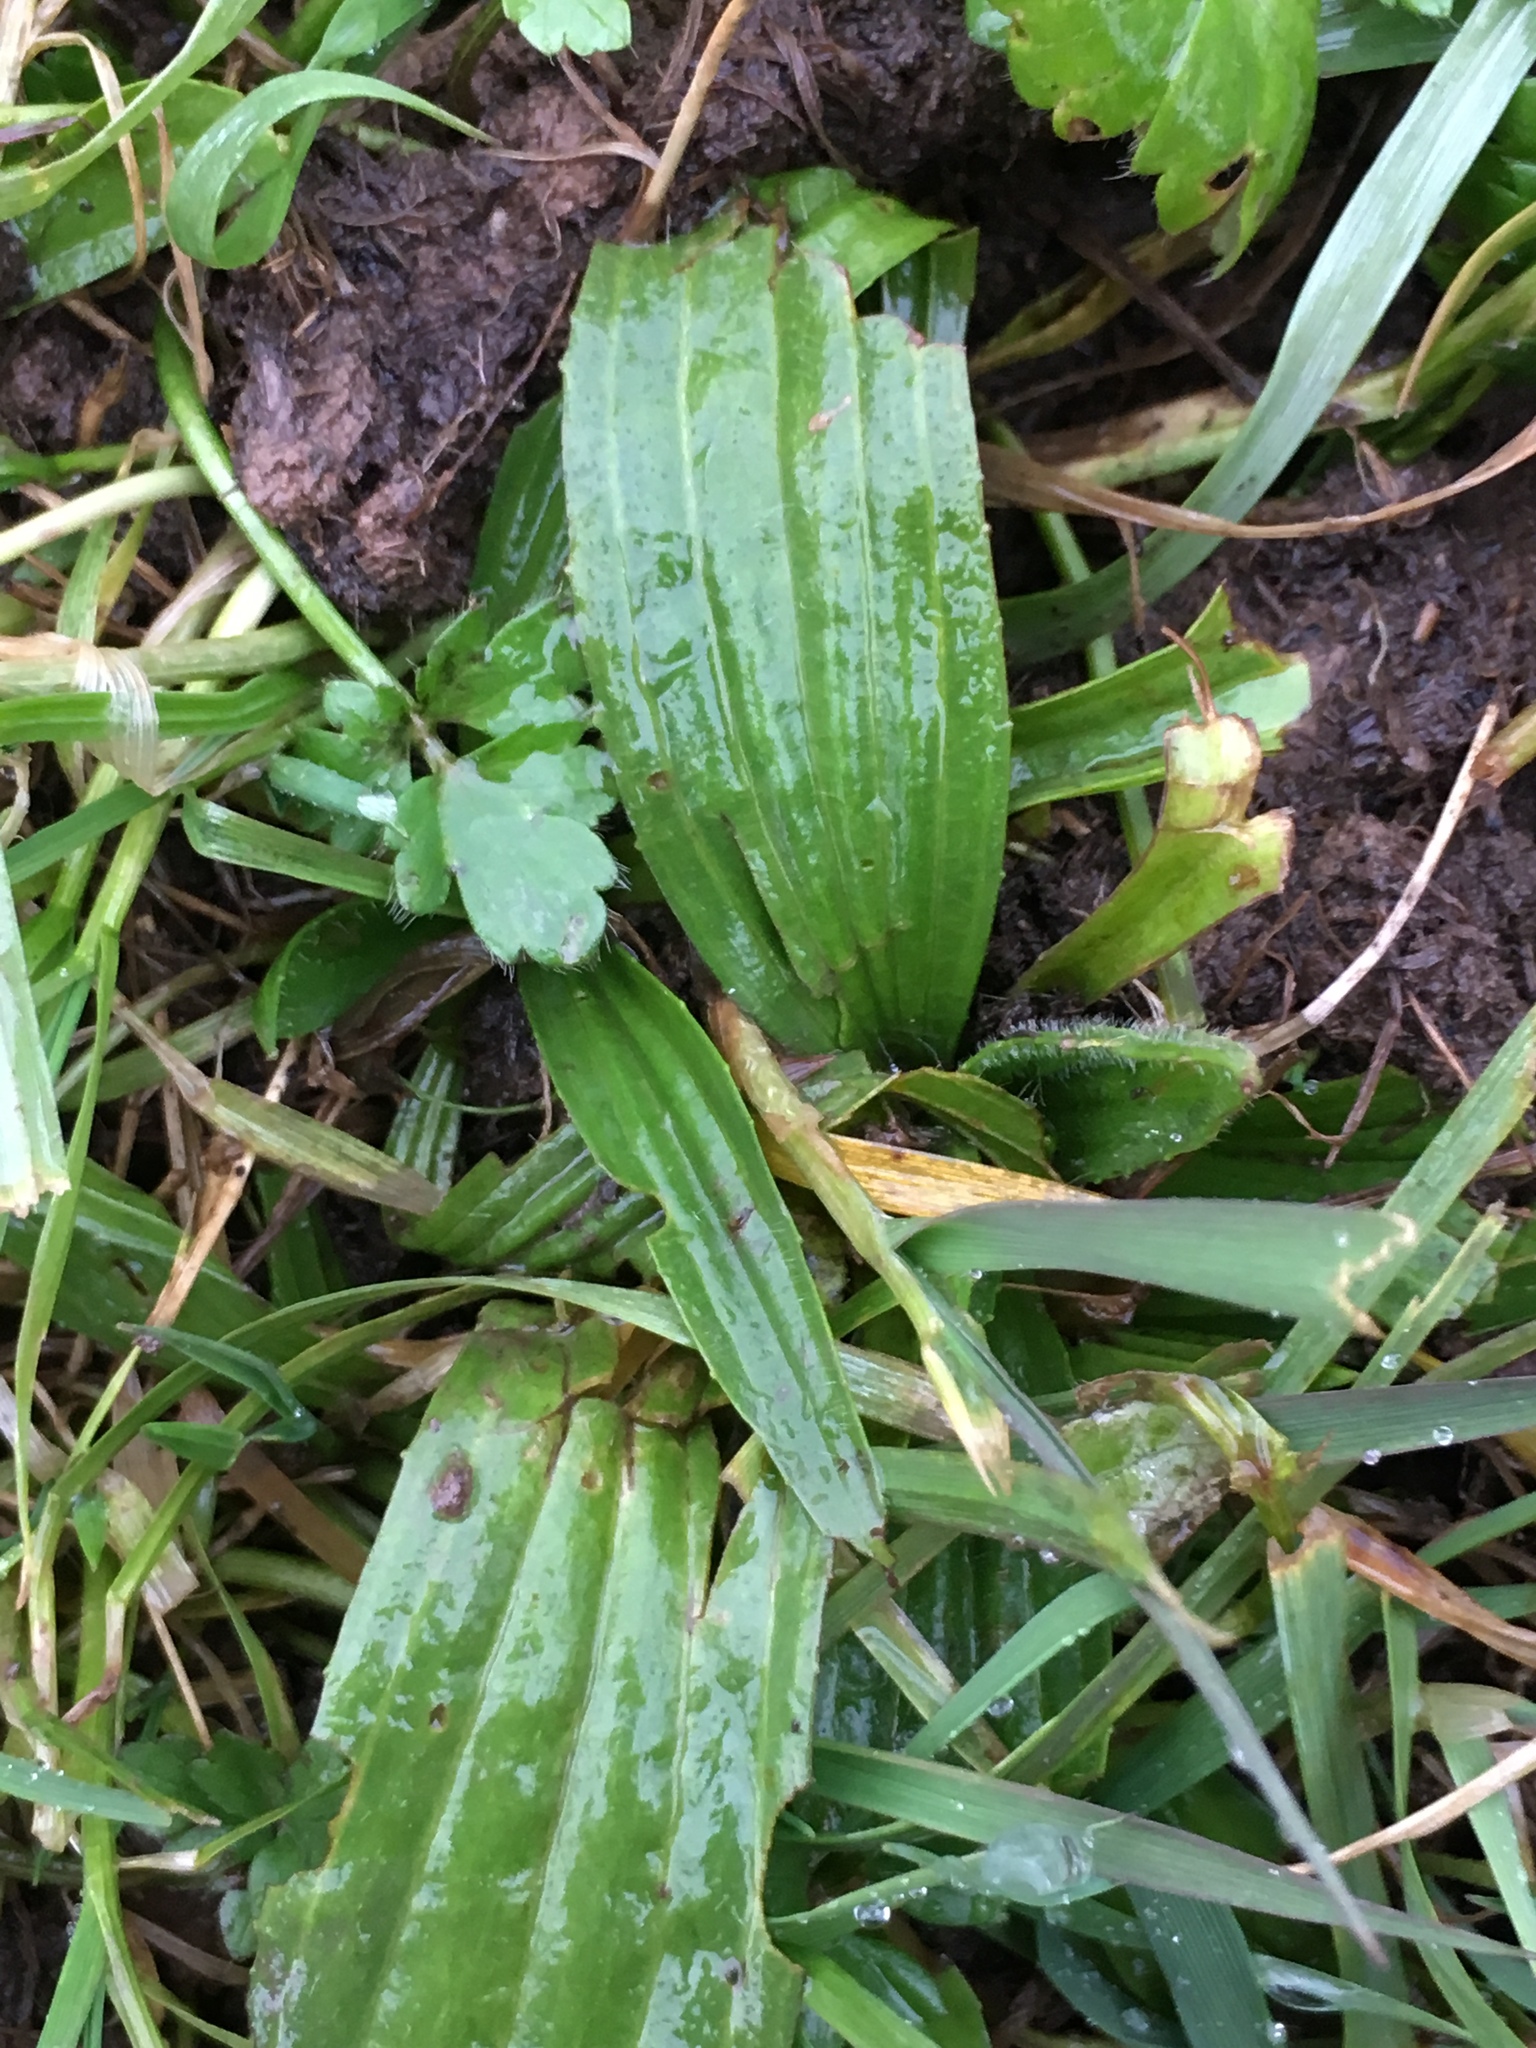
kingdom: Plantae
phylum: Tracheophyta
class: Magnoliopsida
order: Lamiales
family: Plantaginaceae
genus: Plantago
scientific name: Plantago lanceolata
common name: Ribwort plantain
